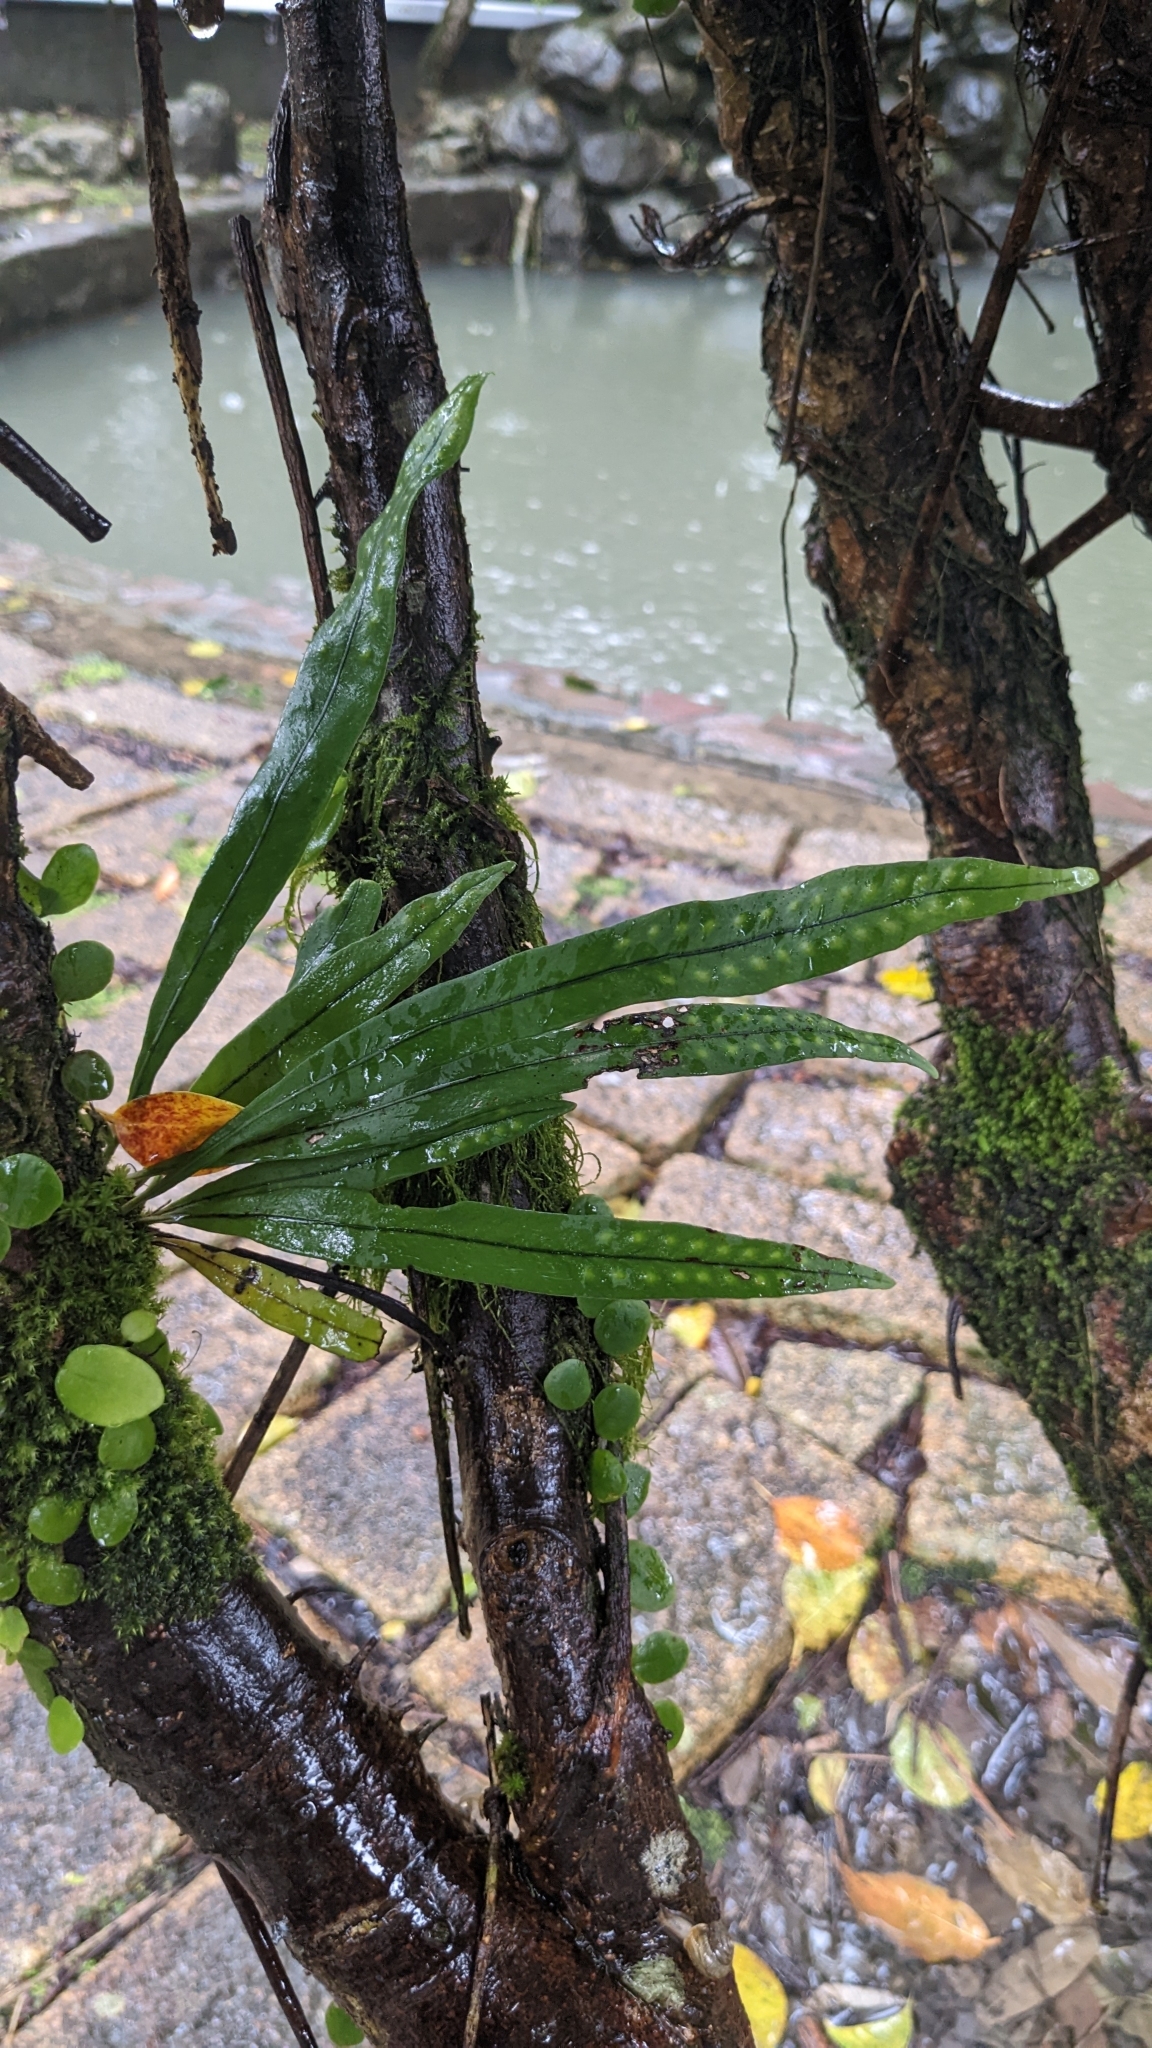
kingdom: Plantae
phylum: Tracheophyta
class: Polypodiopsida
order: Polypodiales
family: Polypodiaceae
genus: Lepisorus
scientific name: Lepisorus thunbergianus
